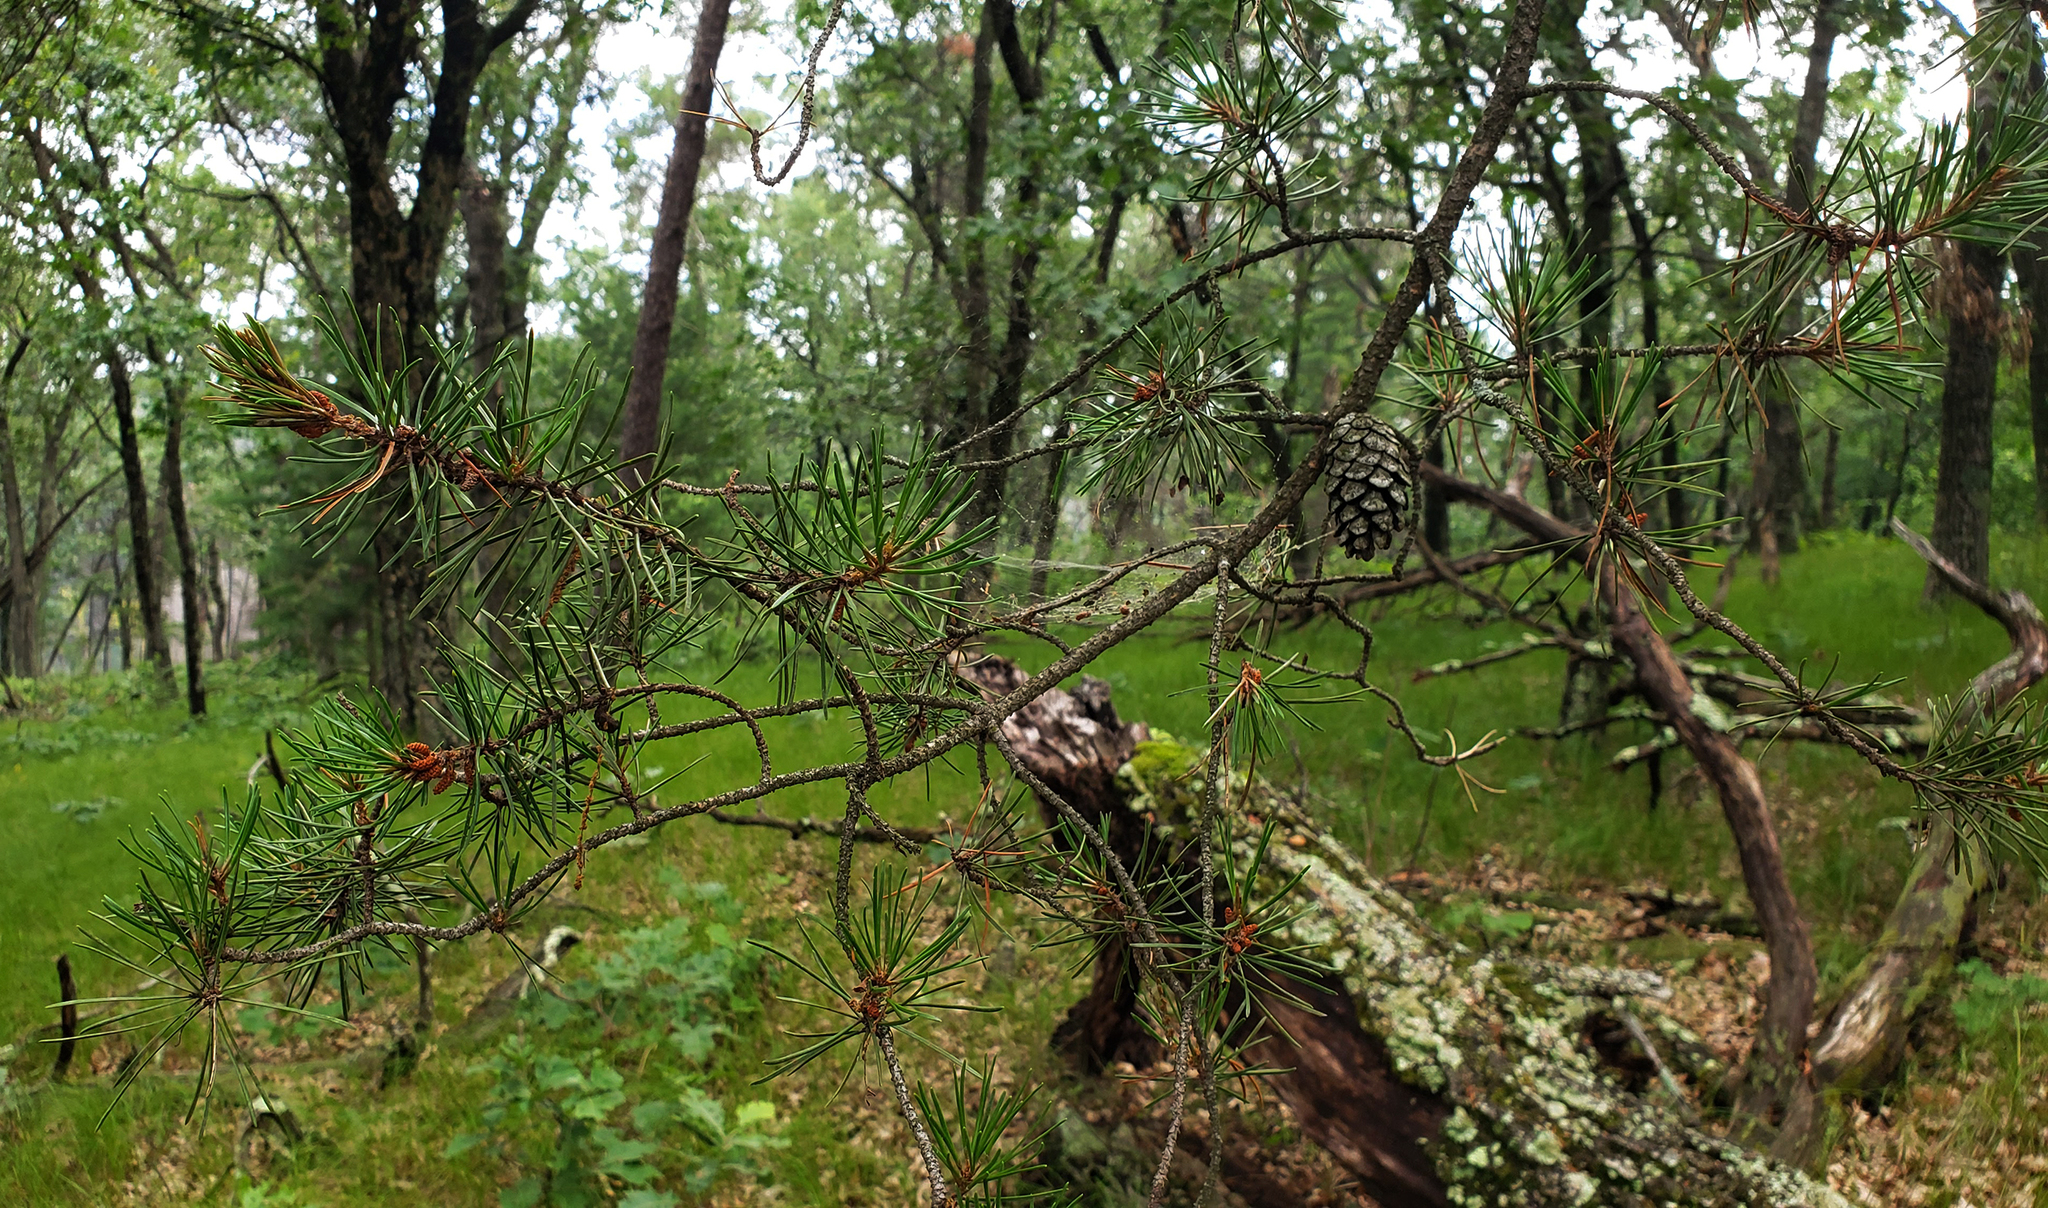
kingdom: Plantae
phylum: Tracheophyta
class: Pinopsida
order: Pinales
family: Pinaceae
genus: Pinus
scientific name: Pinus banksiana
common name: Jack pine
